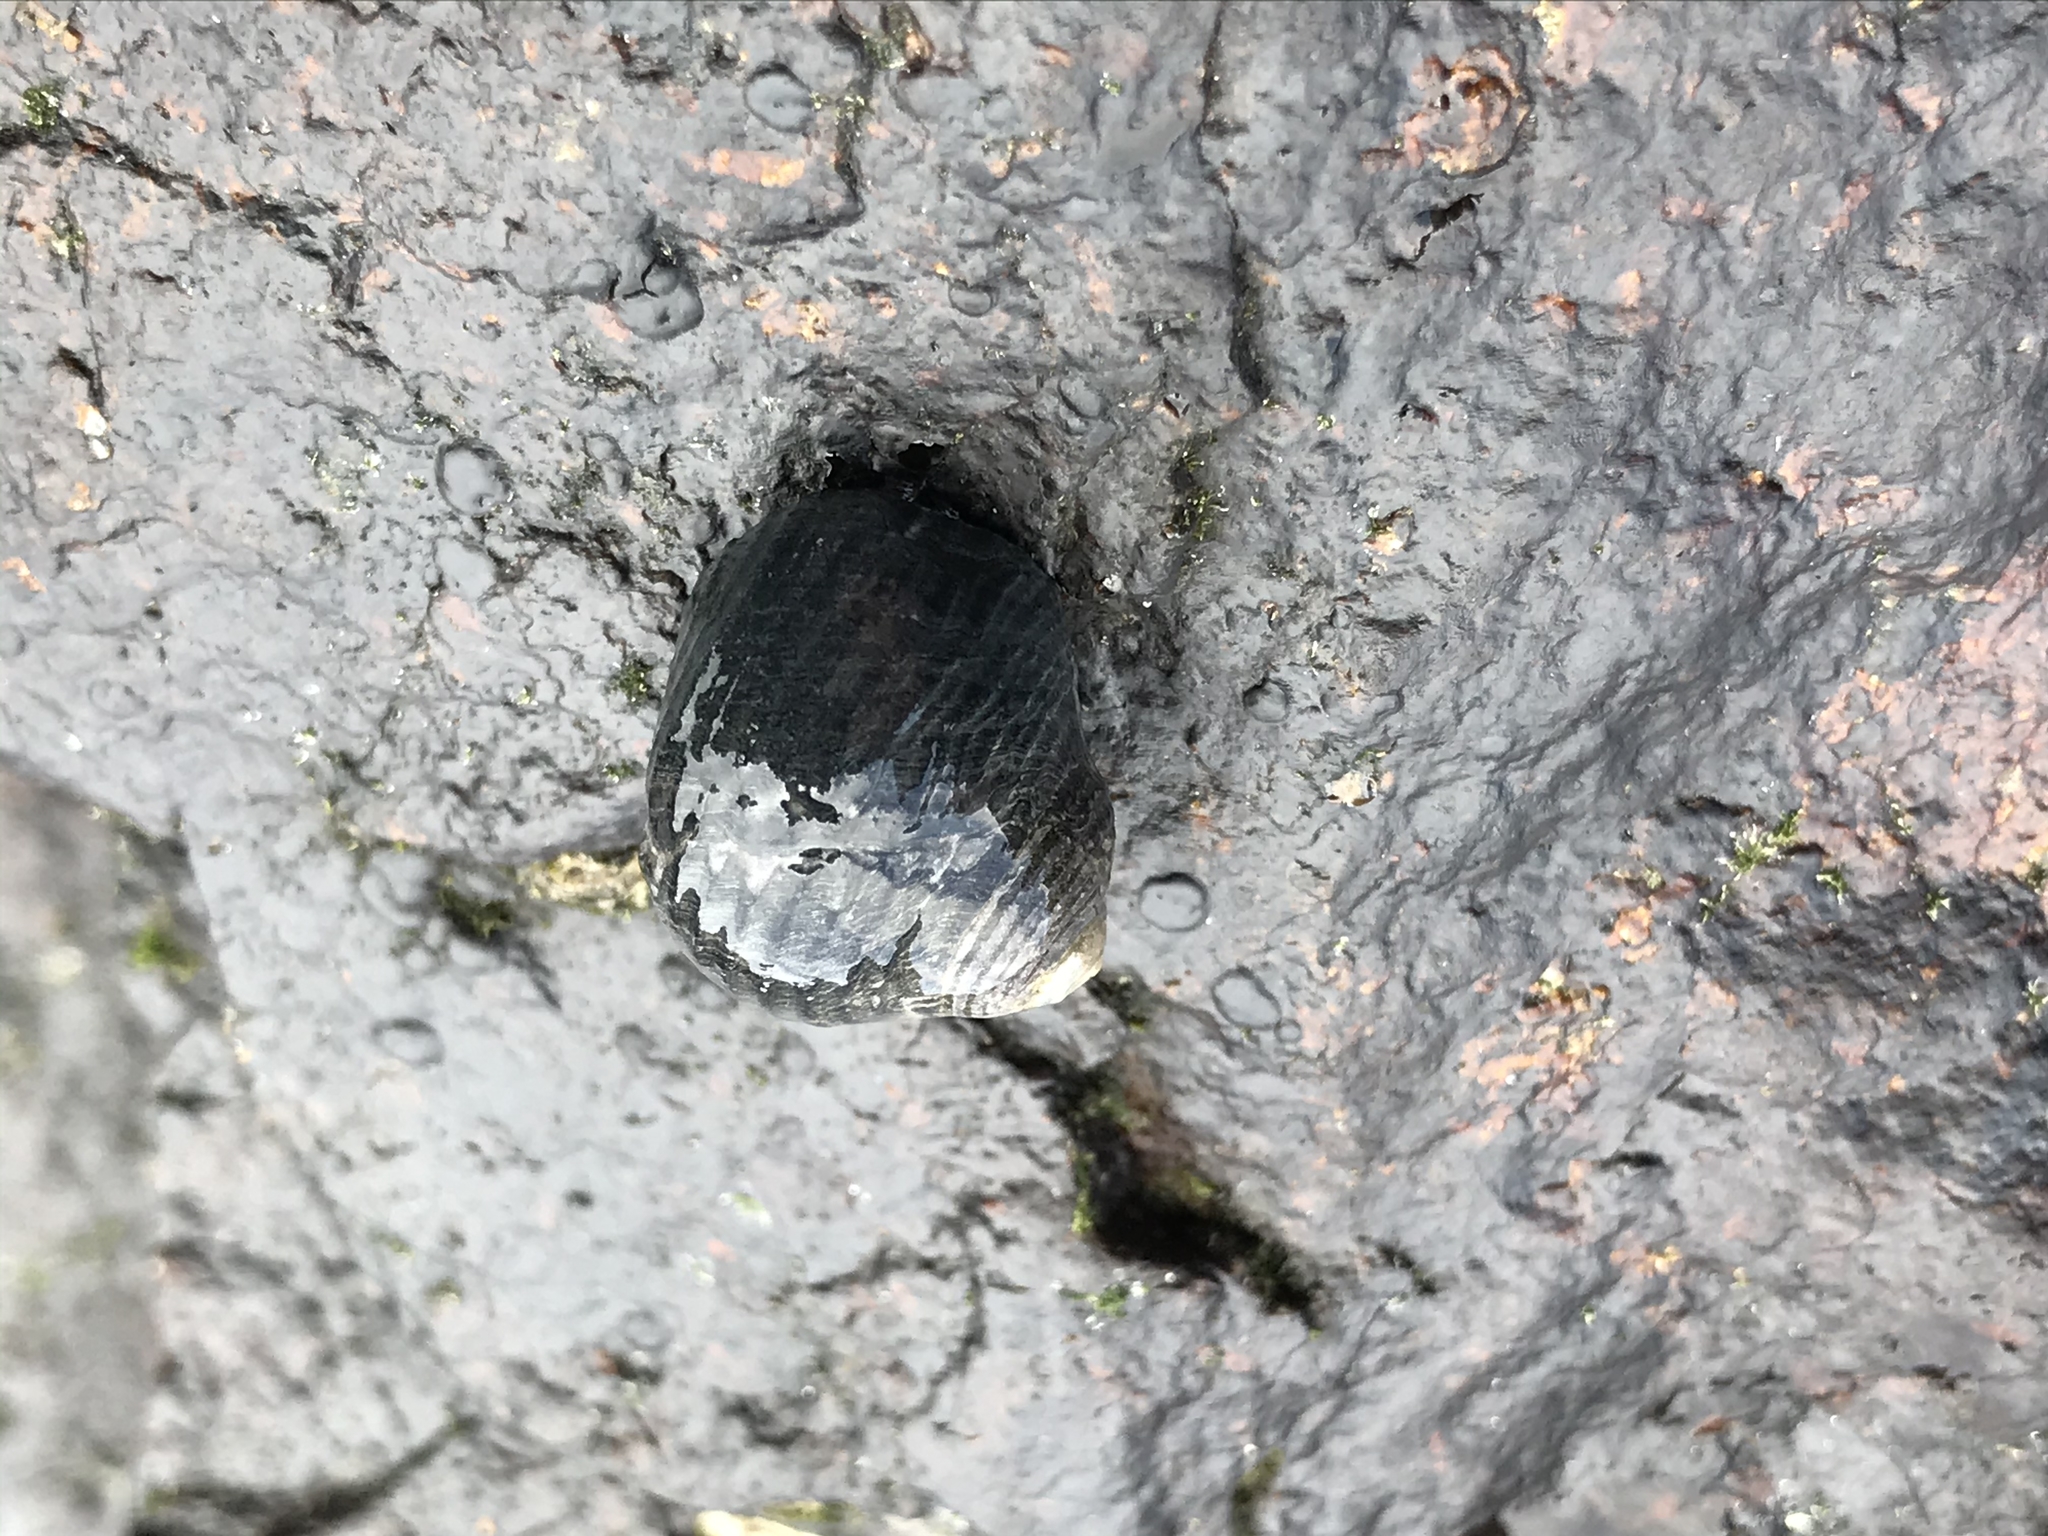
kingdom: Animalia
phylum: Mollusca
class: Gastropoda
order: Trochida
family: Turbinidae
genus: Prisogaster
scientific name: Prisogaster niger
